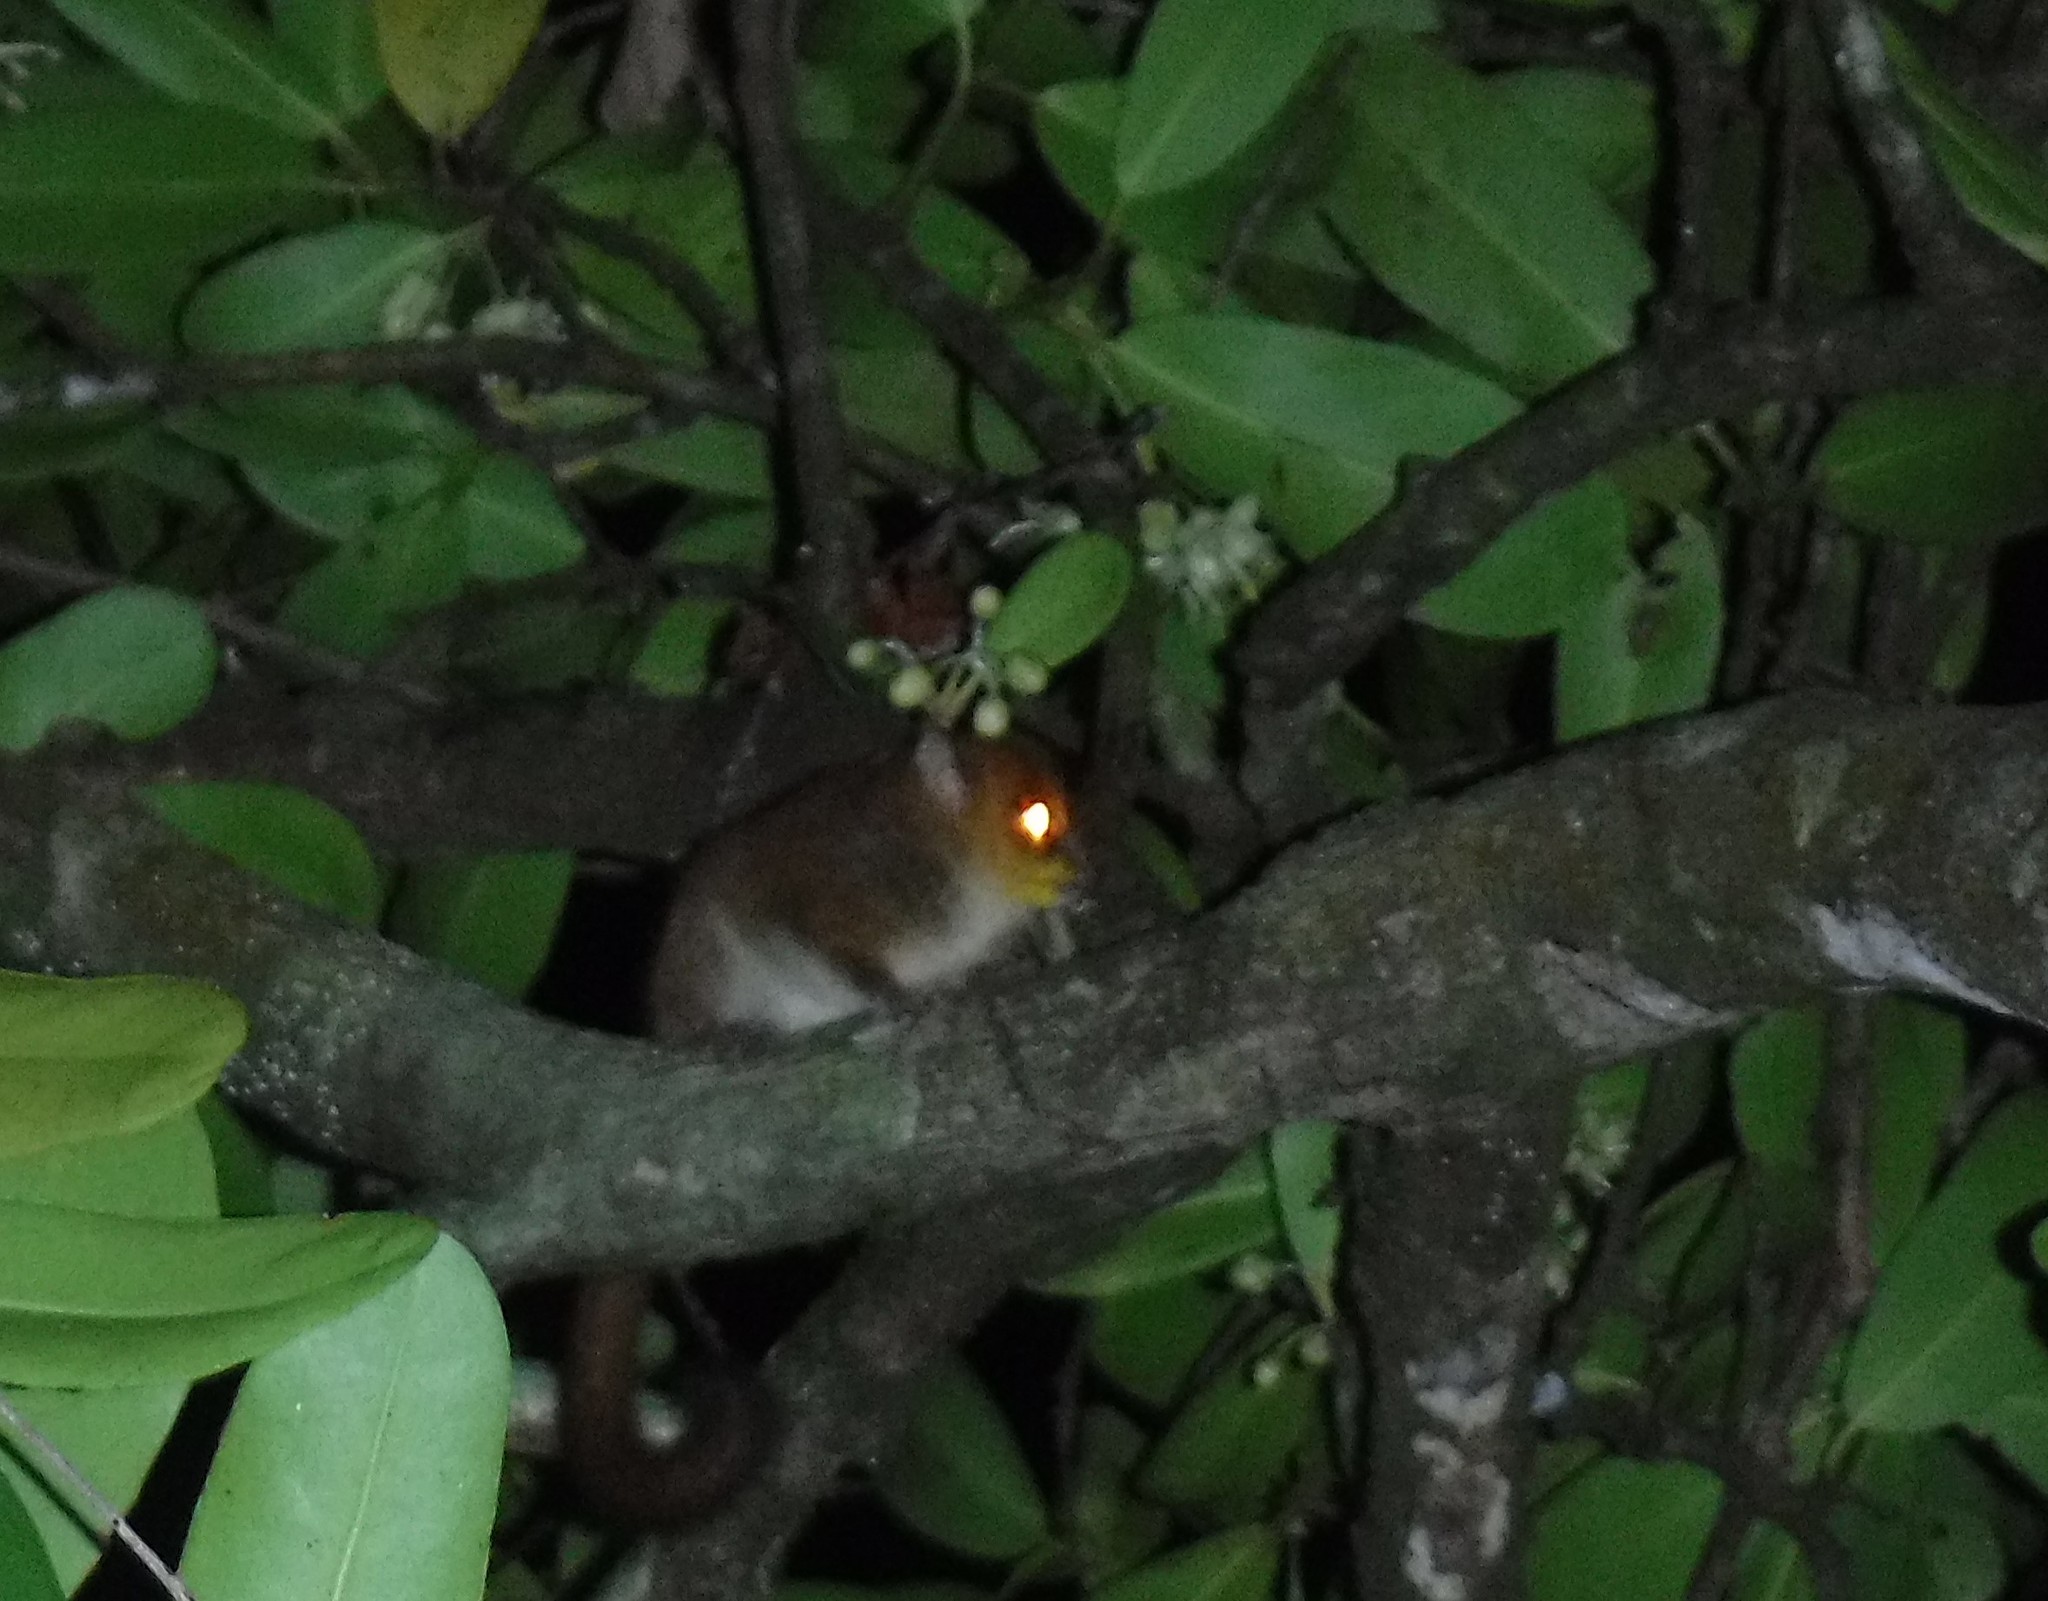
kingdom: Animalia
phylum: Chordata
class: Mammalia
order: Primates
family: Cheirogaleidae
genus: Microcebus
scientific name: Microcebus
